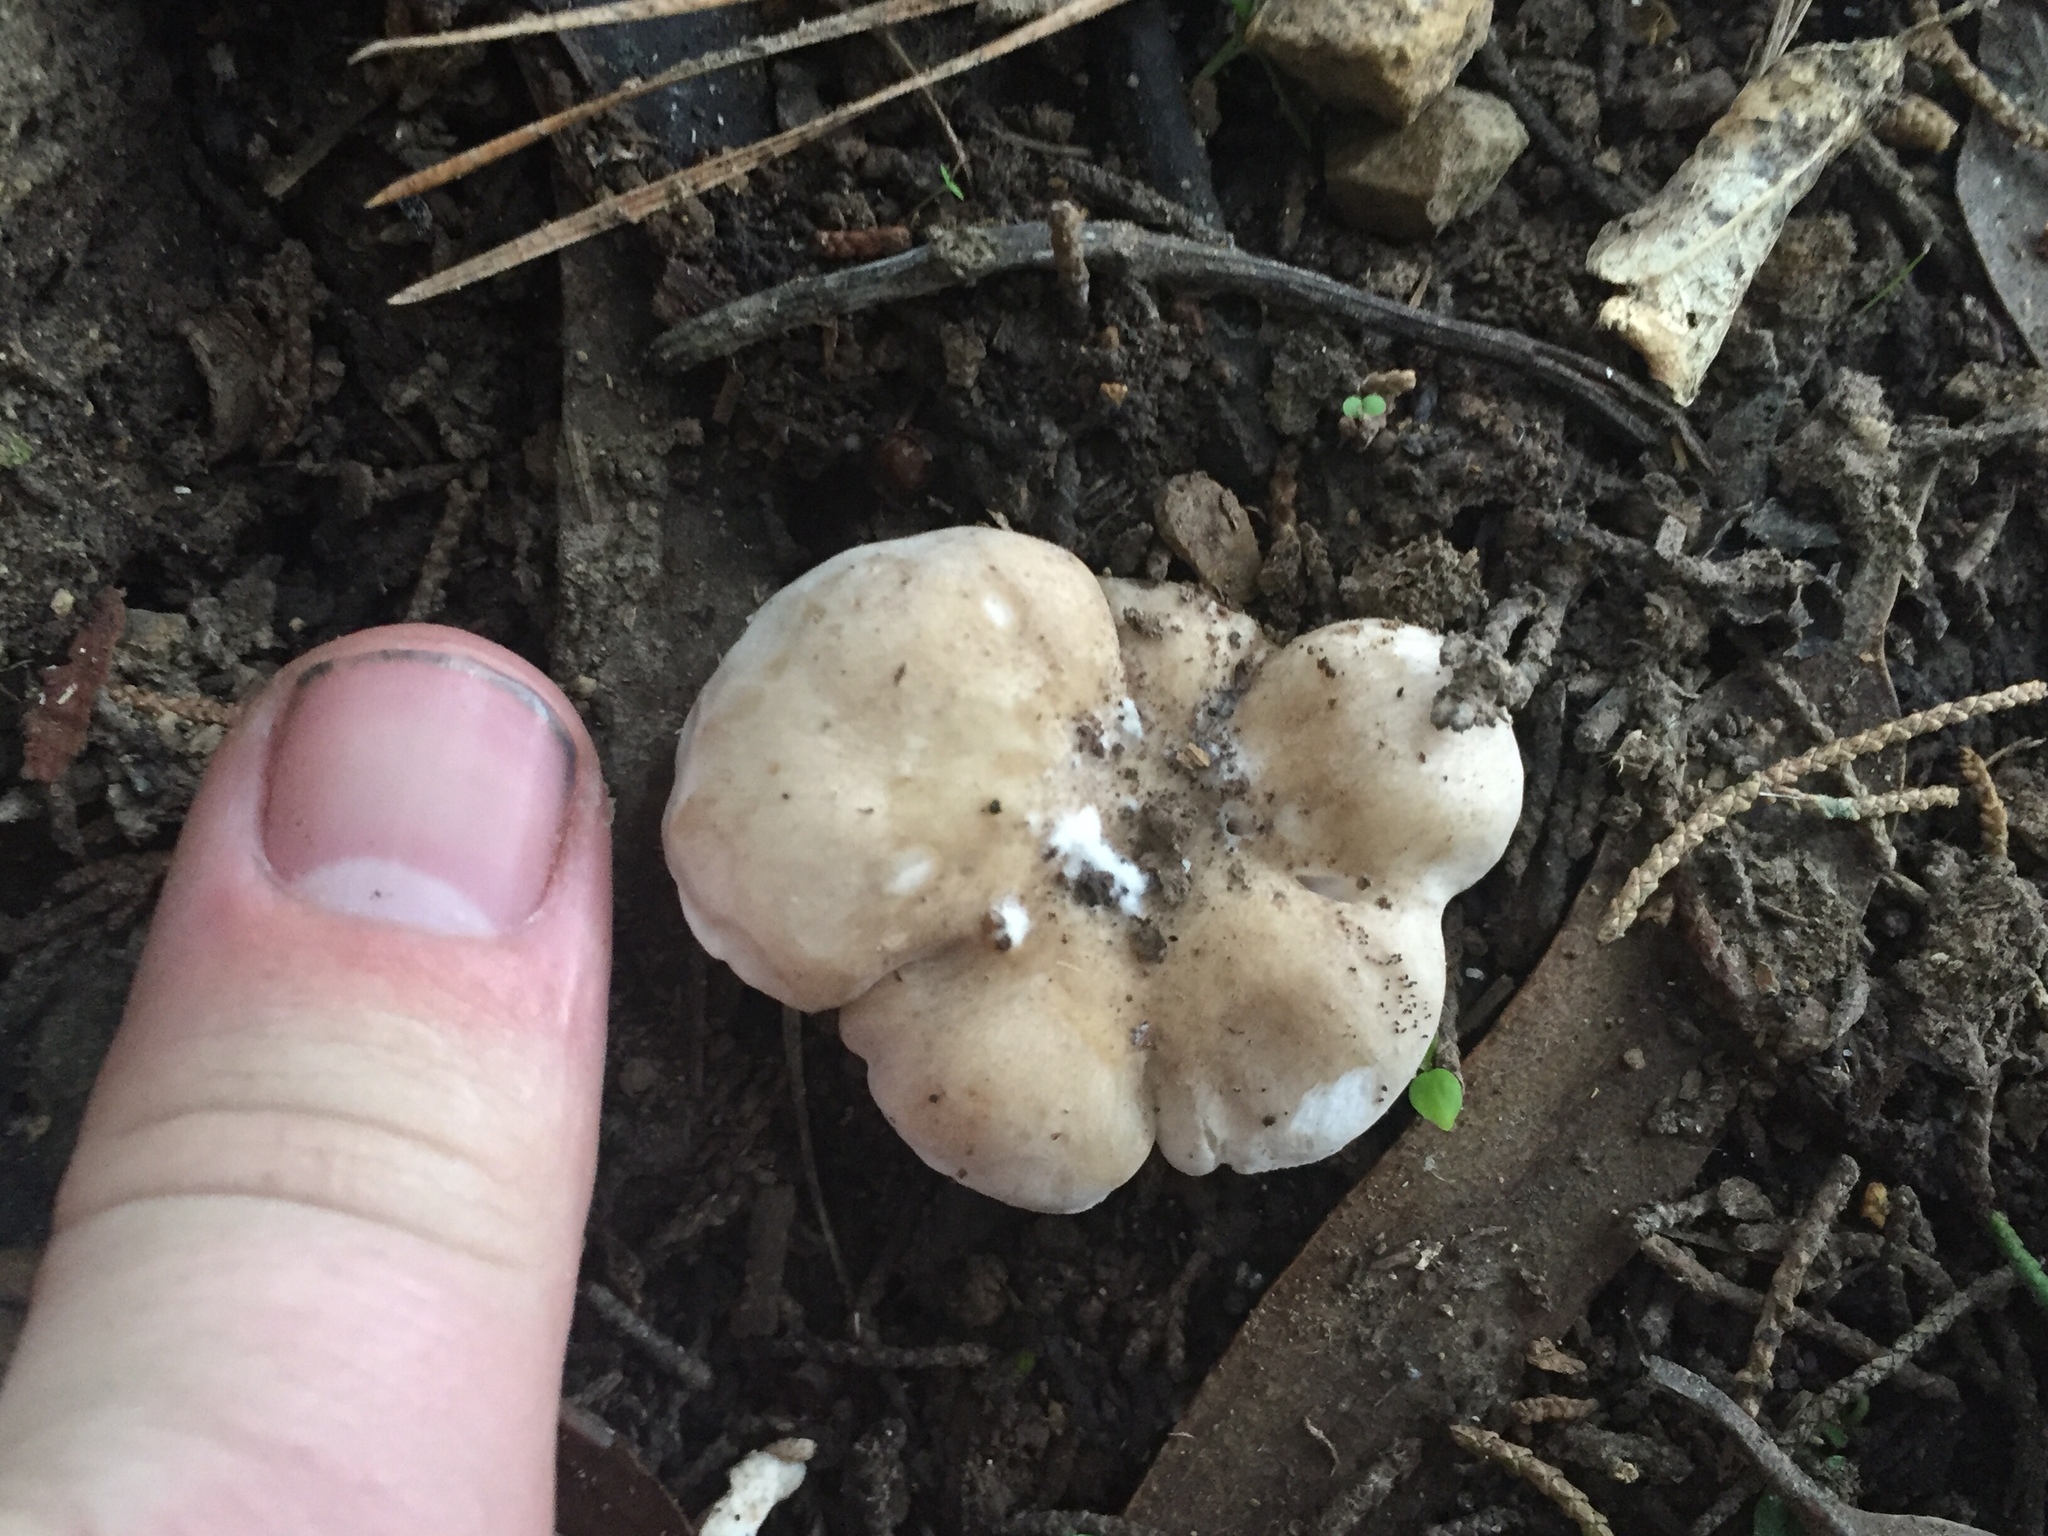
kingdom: Fungi
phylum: Basidiomycota
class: Agaricomycetes
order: Agaricales
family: Tricholomataceae
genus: Clitocybe
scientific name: Clitocybe nebularis
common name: Clouded agaric
